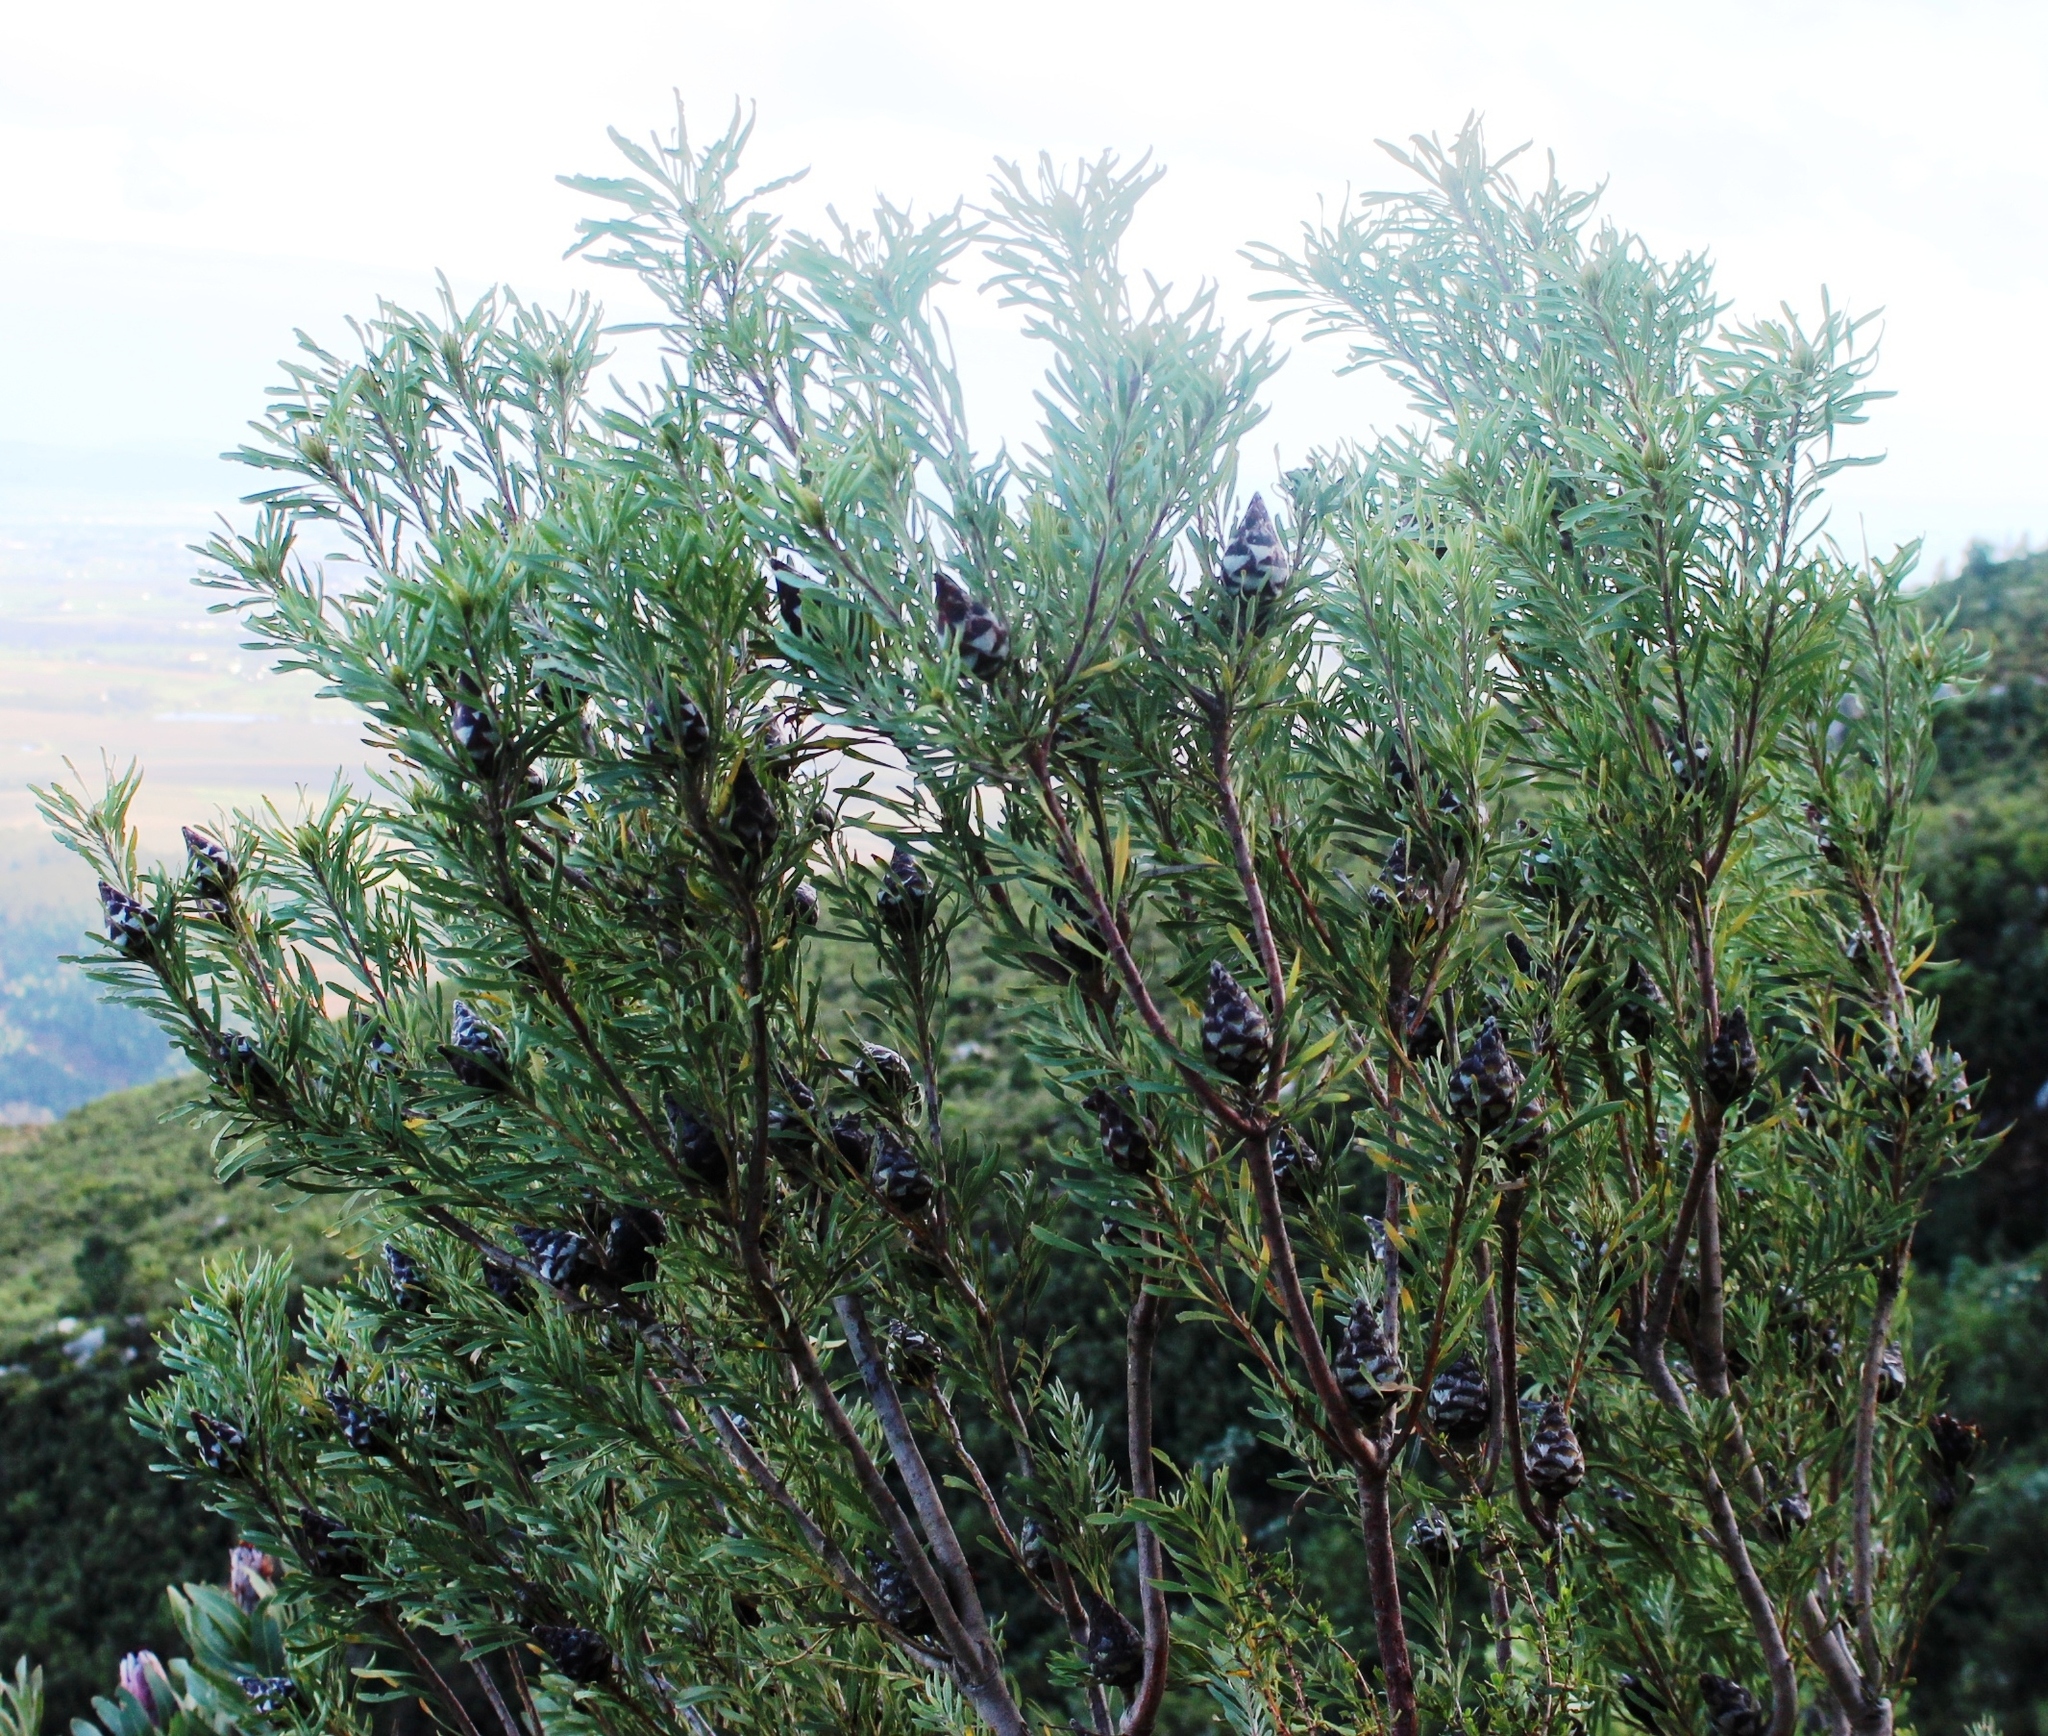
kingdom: Plantae
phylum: Tracheophyta
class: Magnoliopsida
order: Proteales
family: Proteaceae
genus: Leucadendron
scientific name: Leucadendron rubrum
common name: Spinning top
